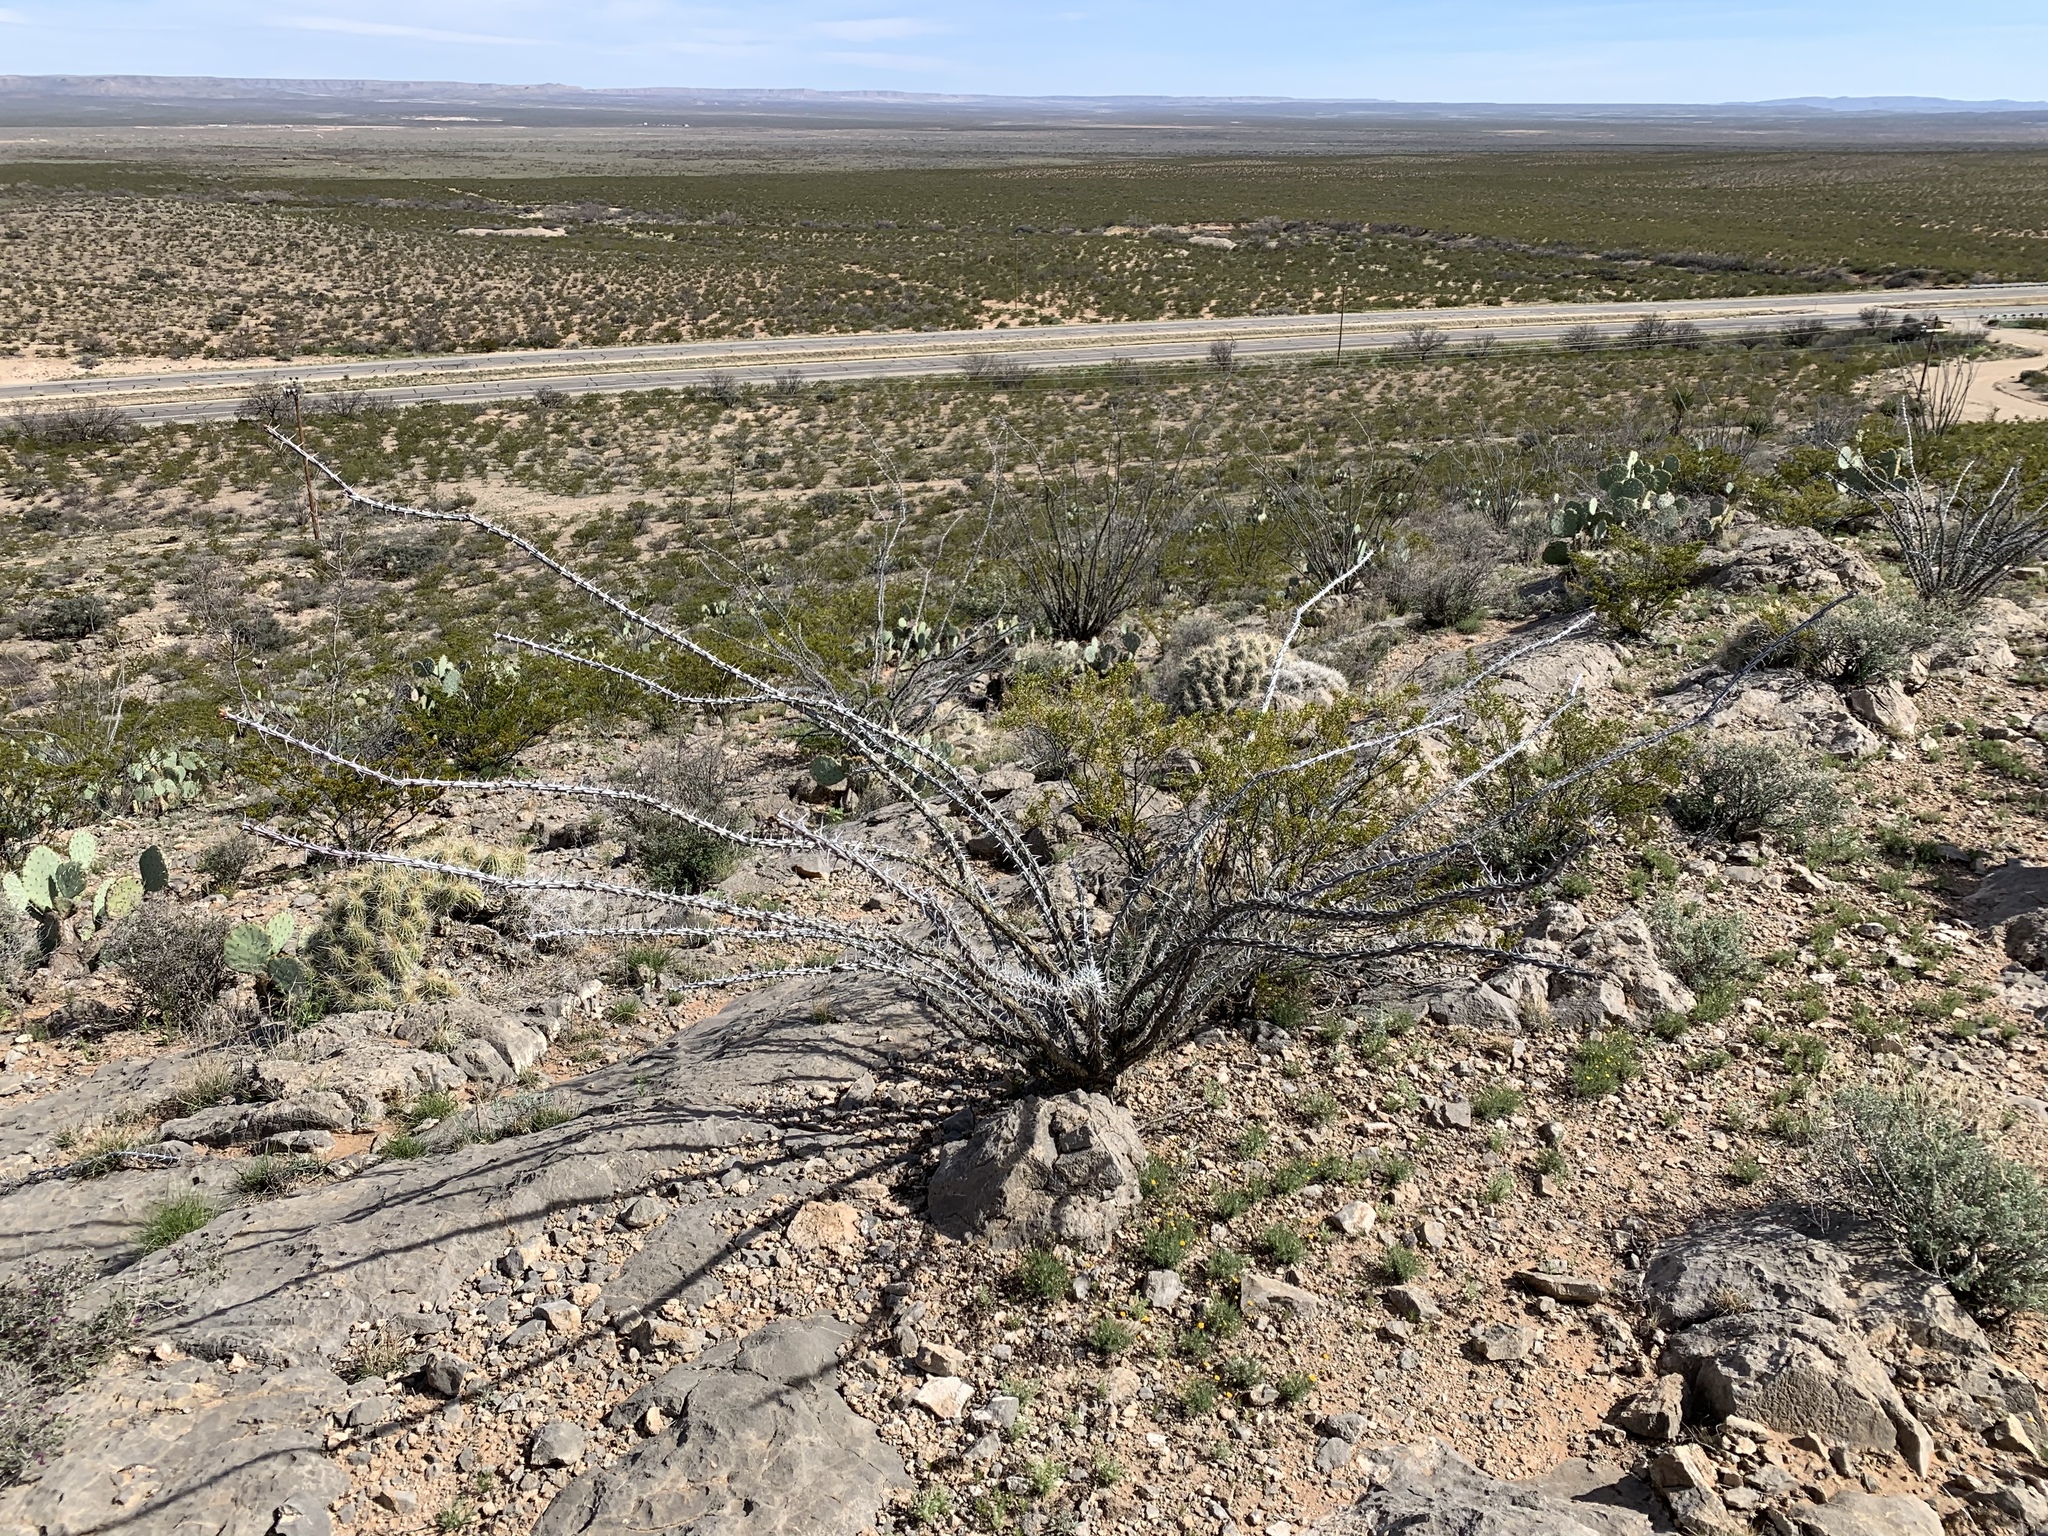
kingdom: Plantae
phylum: Tracheophyta
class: Magnoliopsida
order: Ericales
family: Fouquieriaceae
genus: Fouquieria
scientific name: Fouquieria splendens
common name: Vine-cactus
